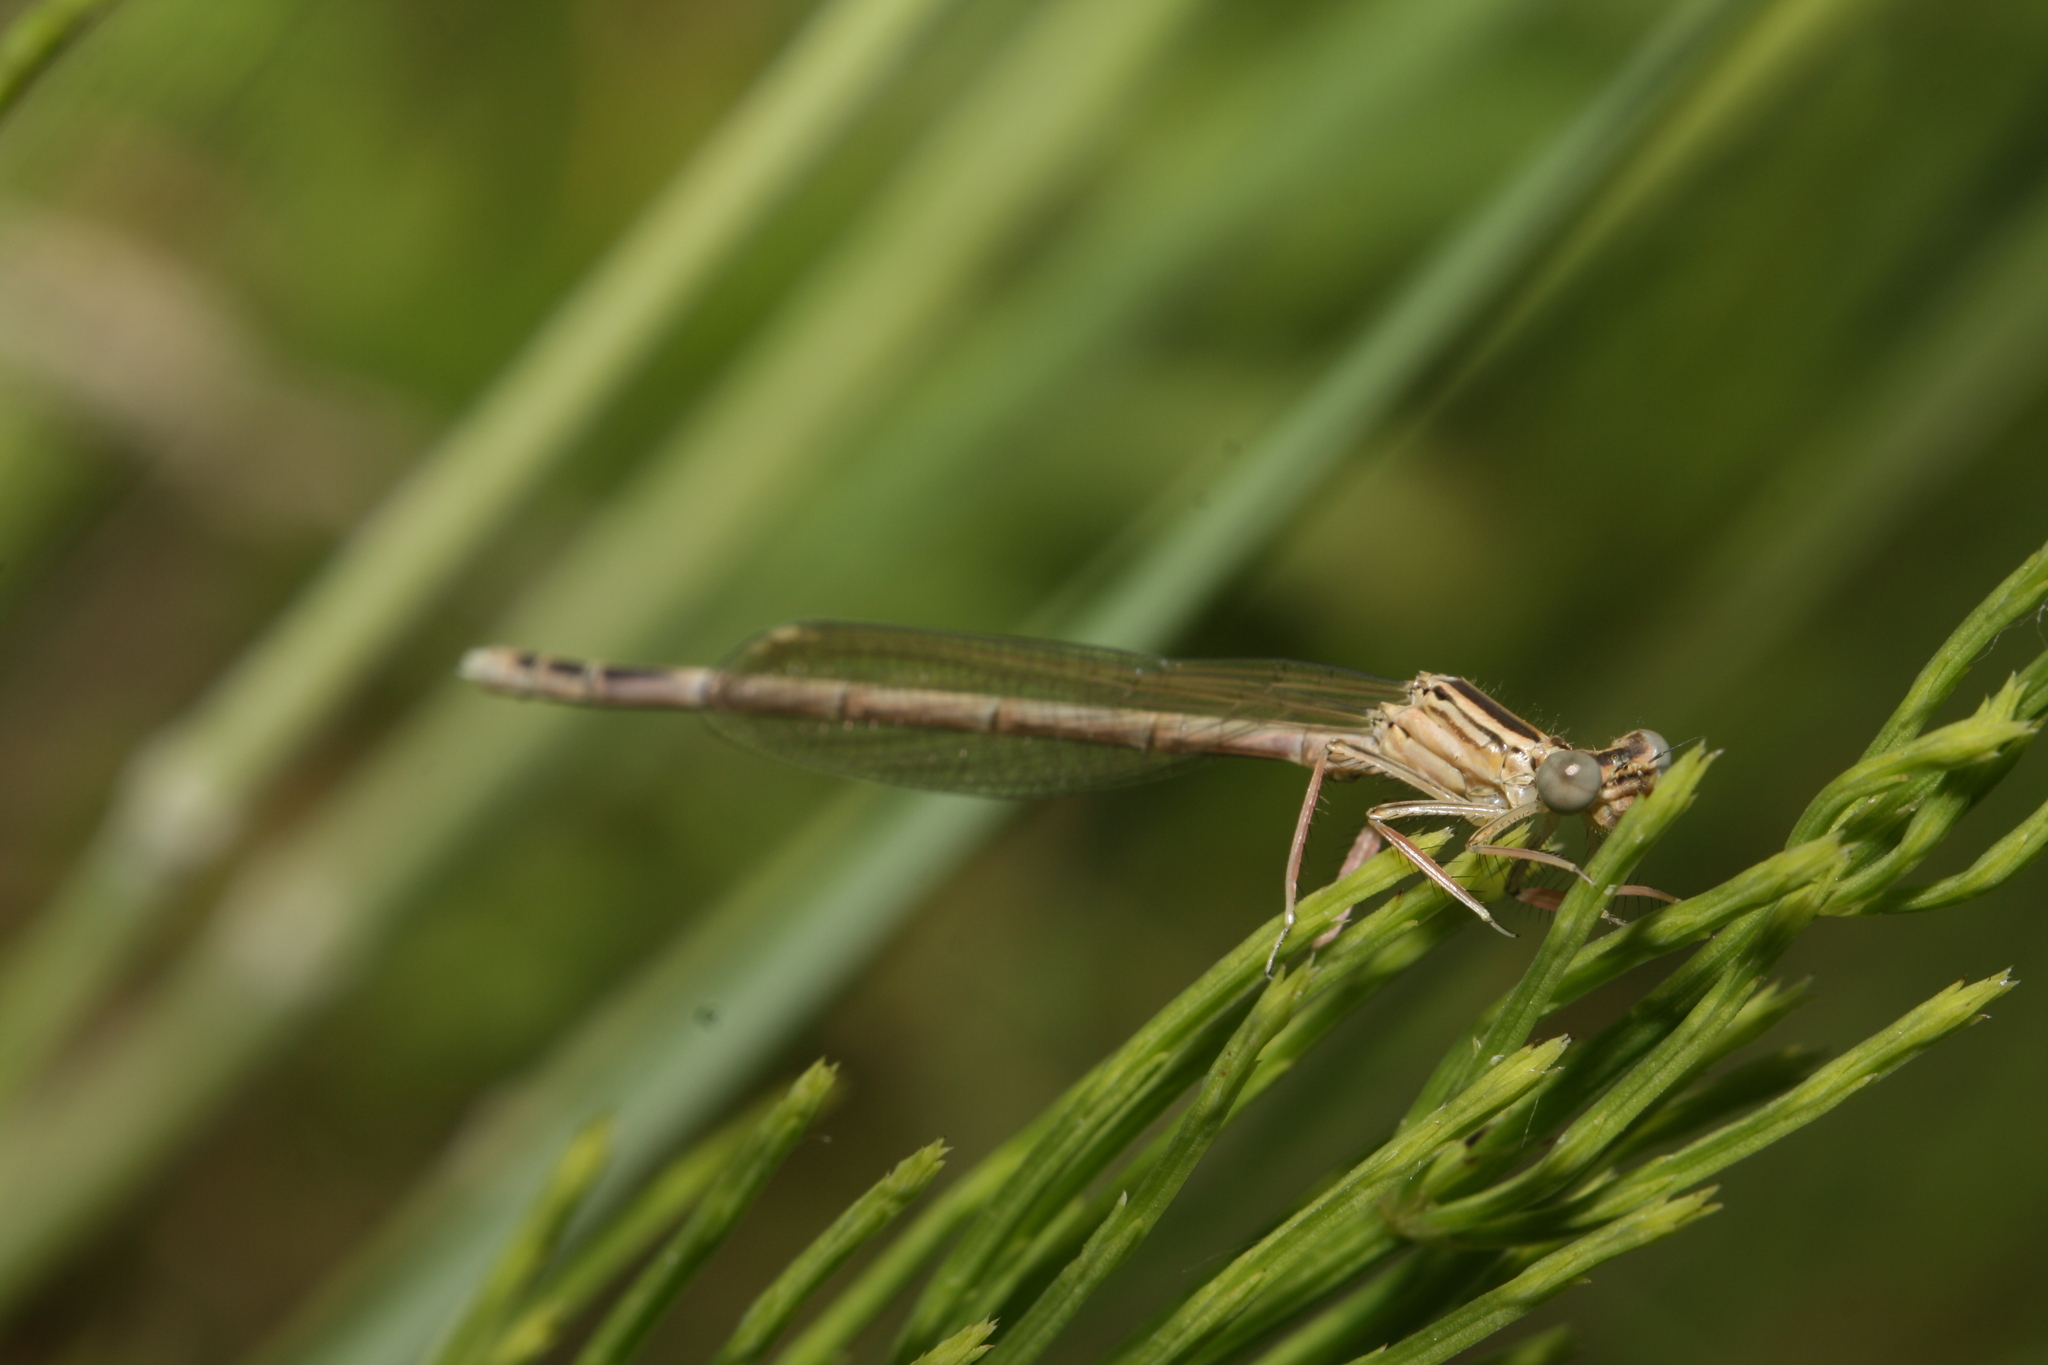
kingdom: Animalia
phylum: Arthropoda
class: Insecta
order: Odonata
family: Platycnemididae
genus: Platycnemis
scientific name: Platycnemis pennipes
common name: White-legged damselfly
